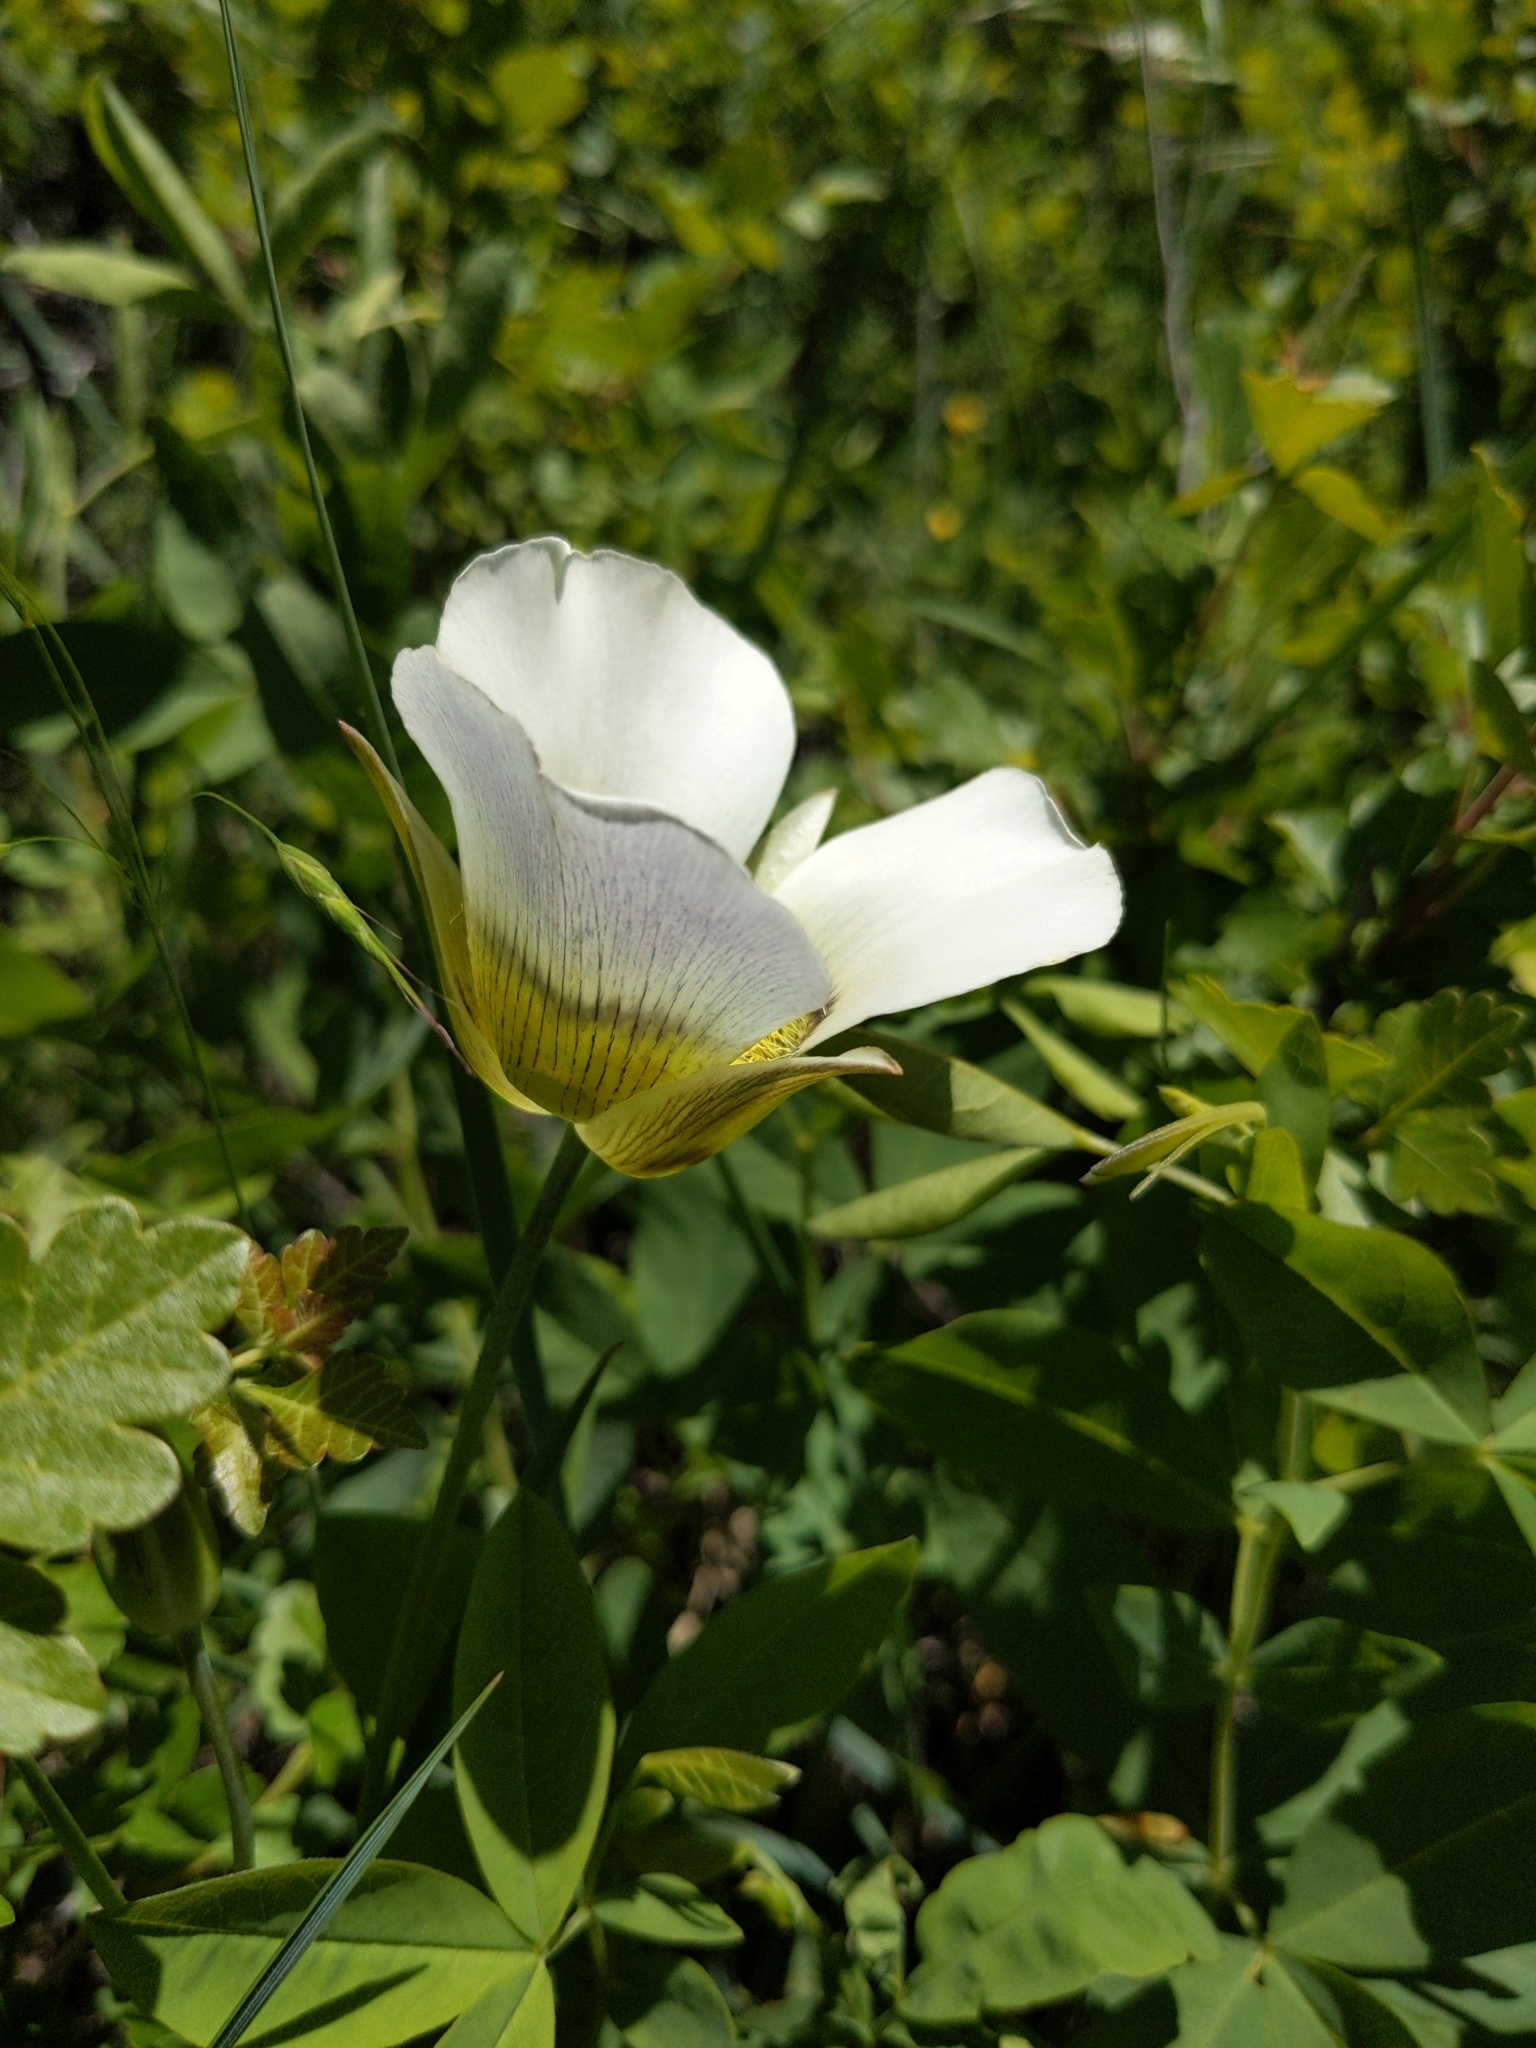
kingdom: Plantae
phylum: Tracheophyta
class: Liliopsida
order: Liliales
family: Liliaceae
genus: Calochortus
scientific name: Calochortus gunnisonii
